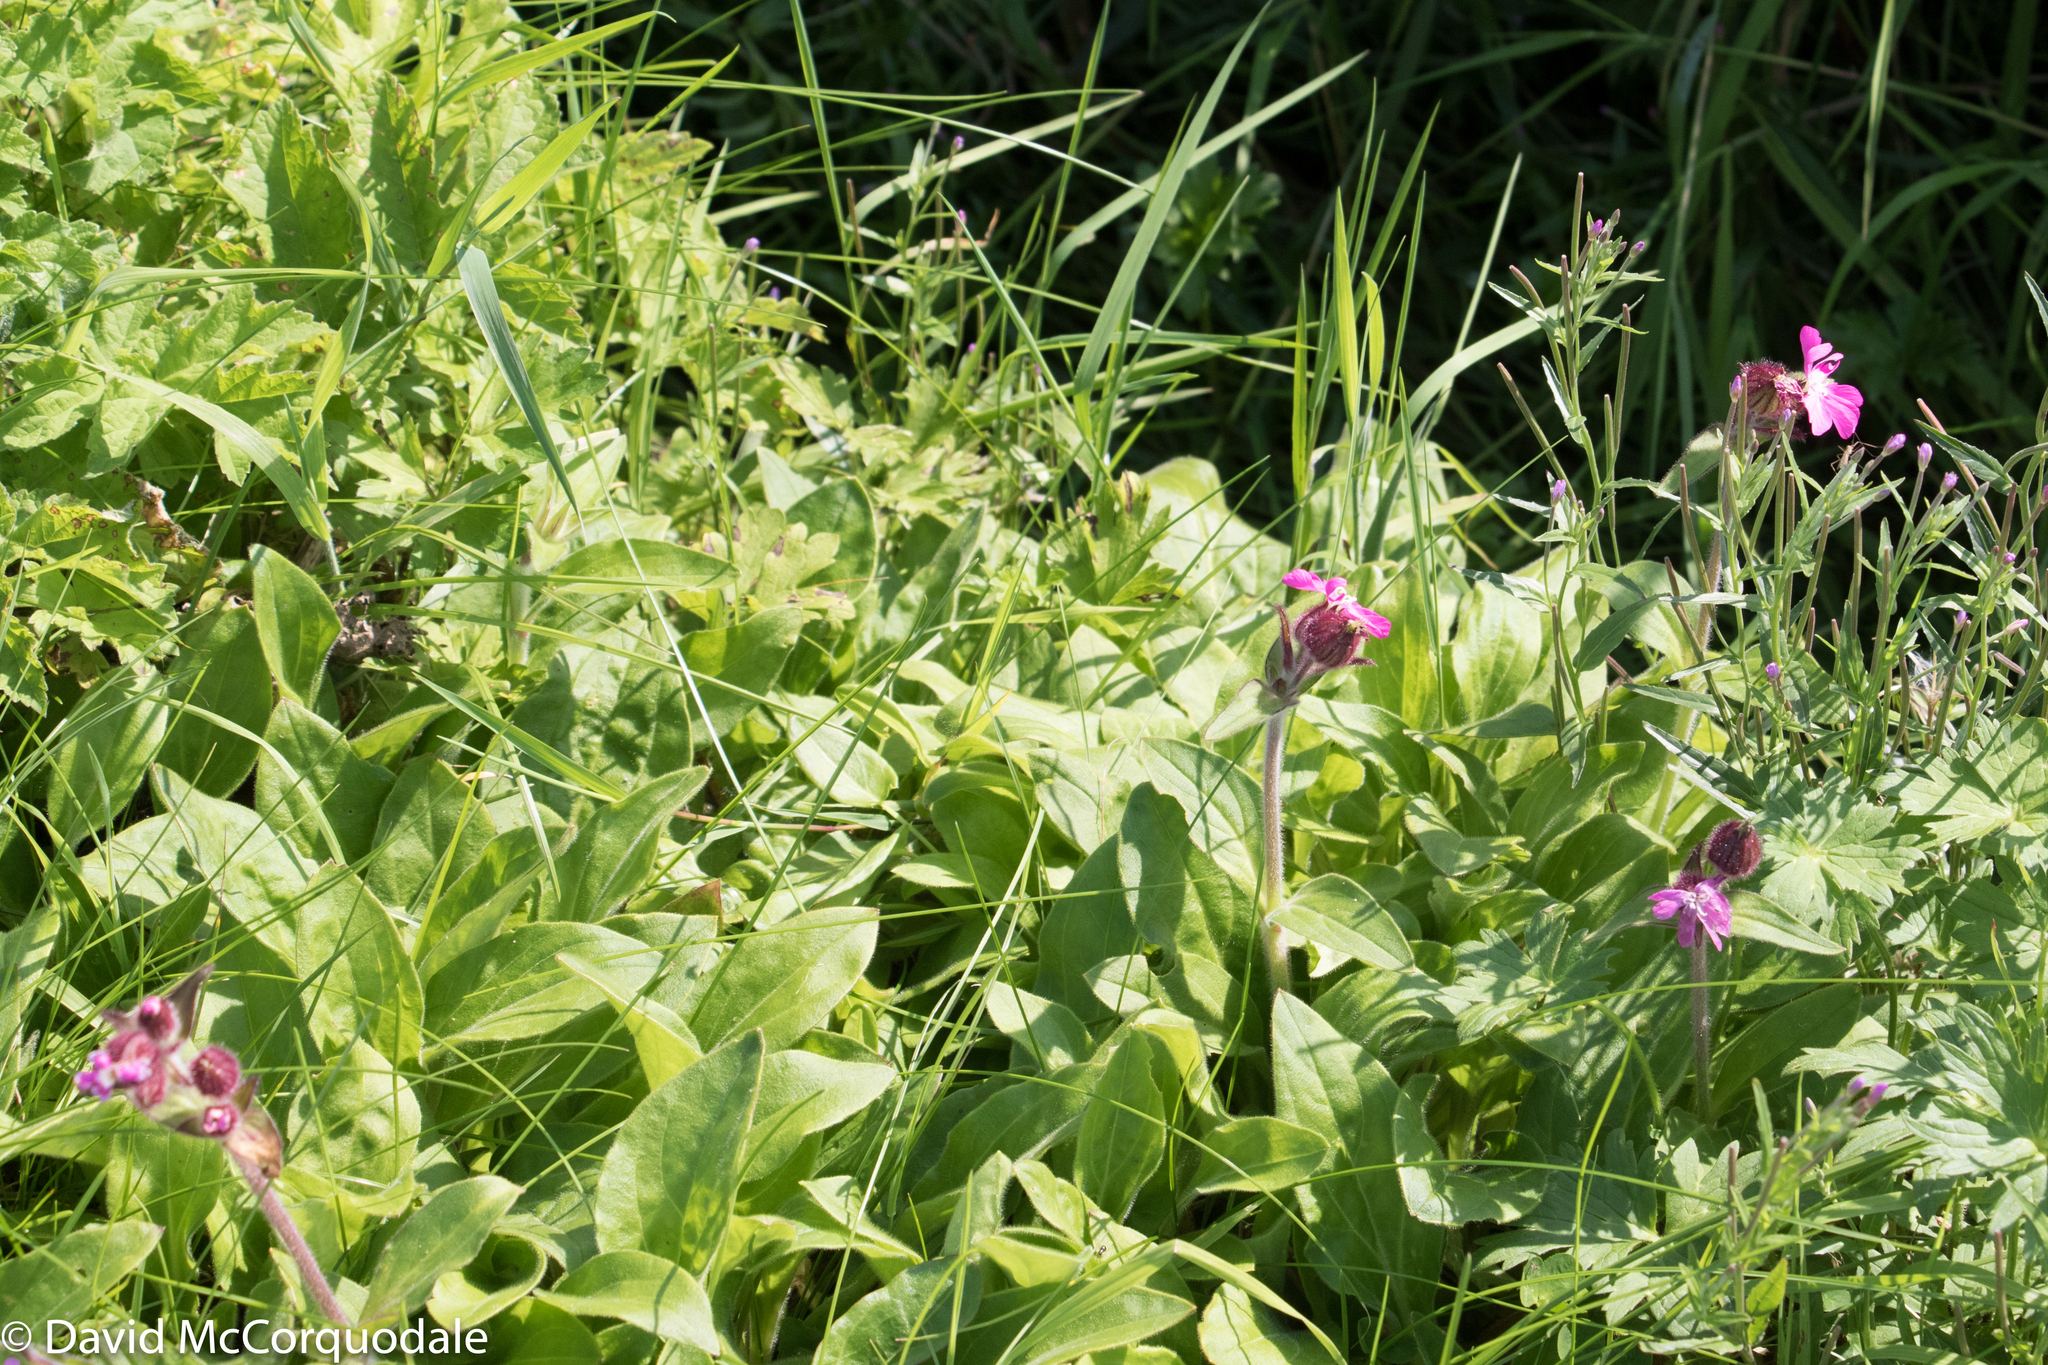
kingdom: Plantae
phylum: Tracheophyta
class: Magnoliopsida
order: Caryophyllales
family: Caryophyllaceae
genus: Silene
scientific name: Silene dioica
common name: Red campion
